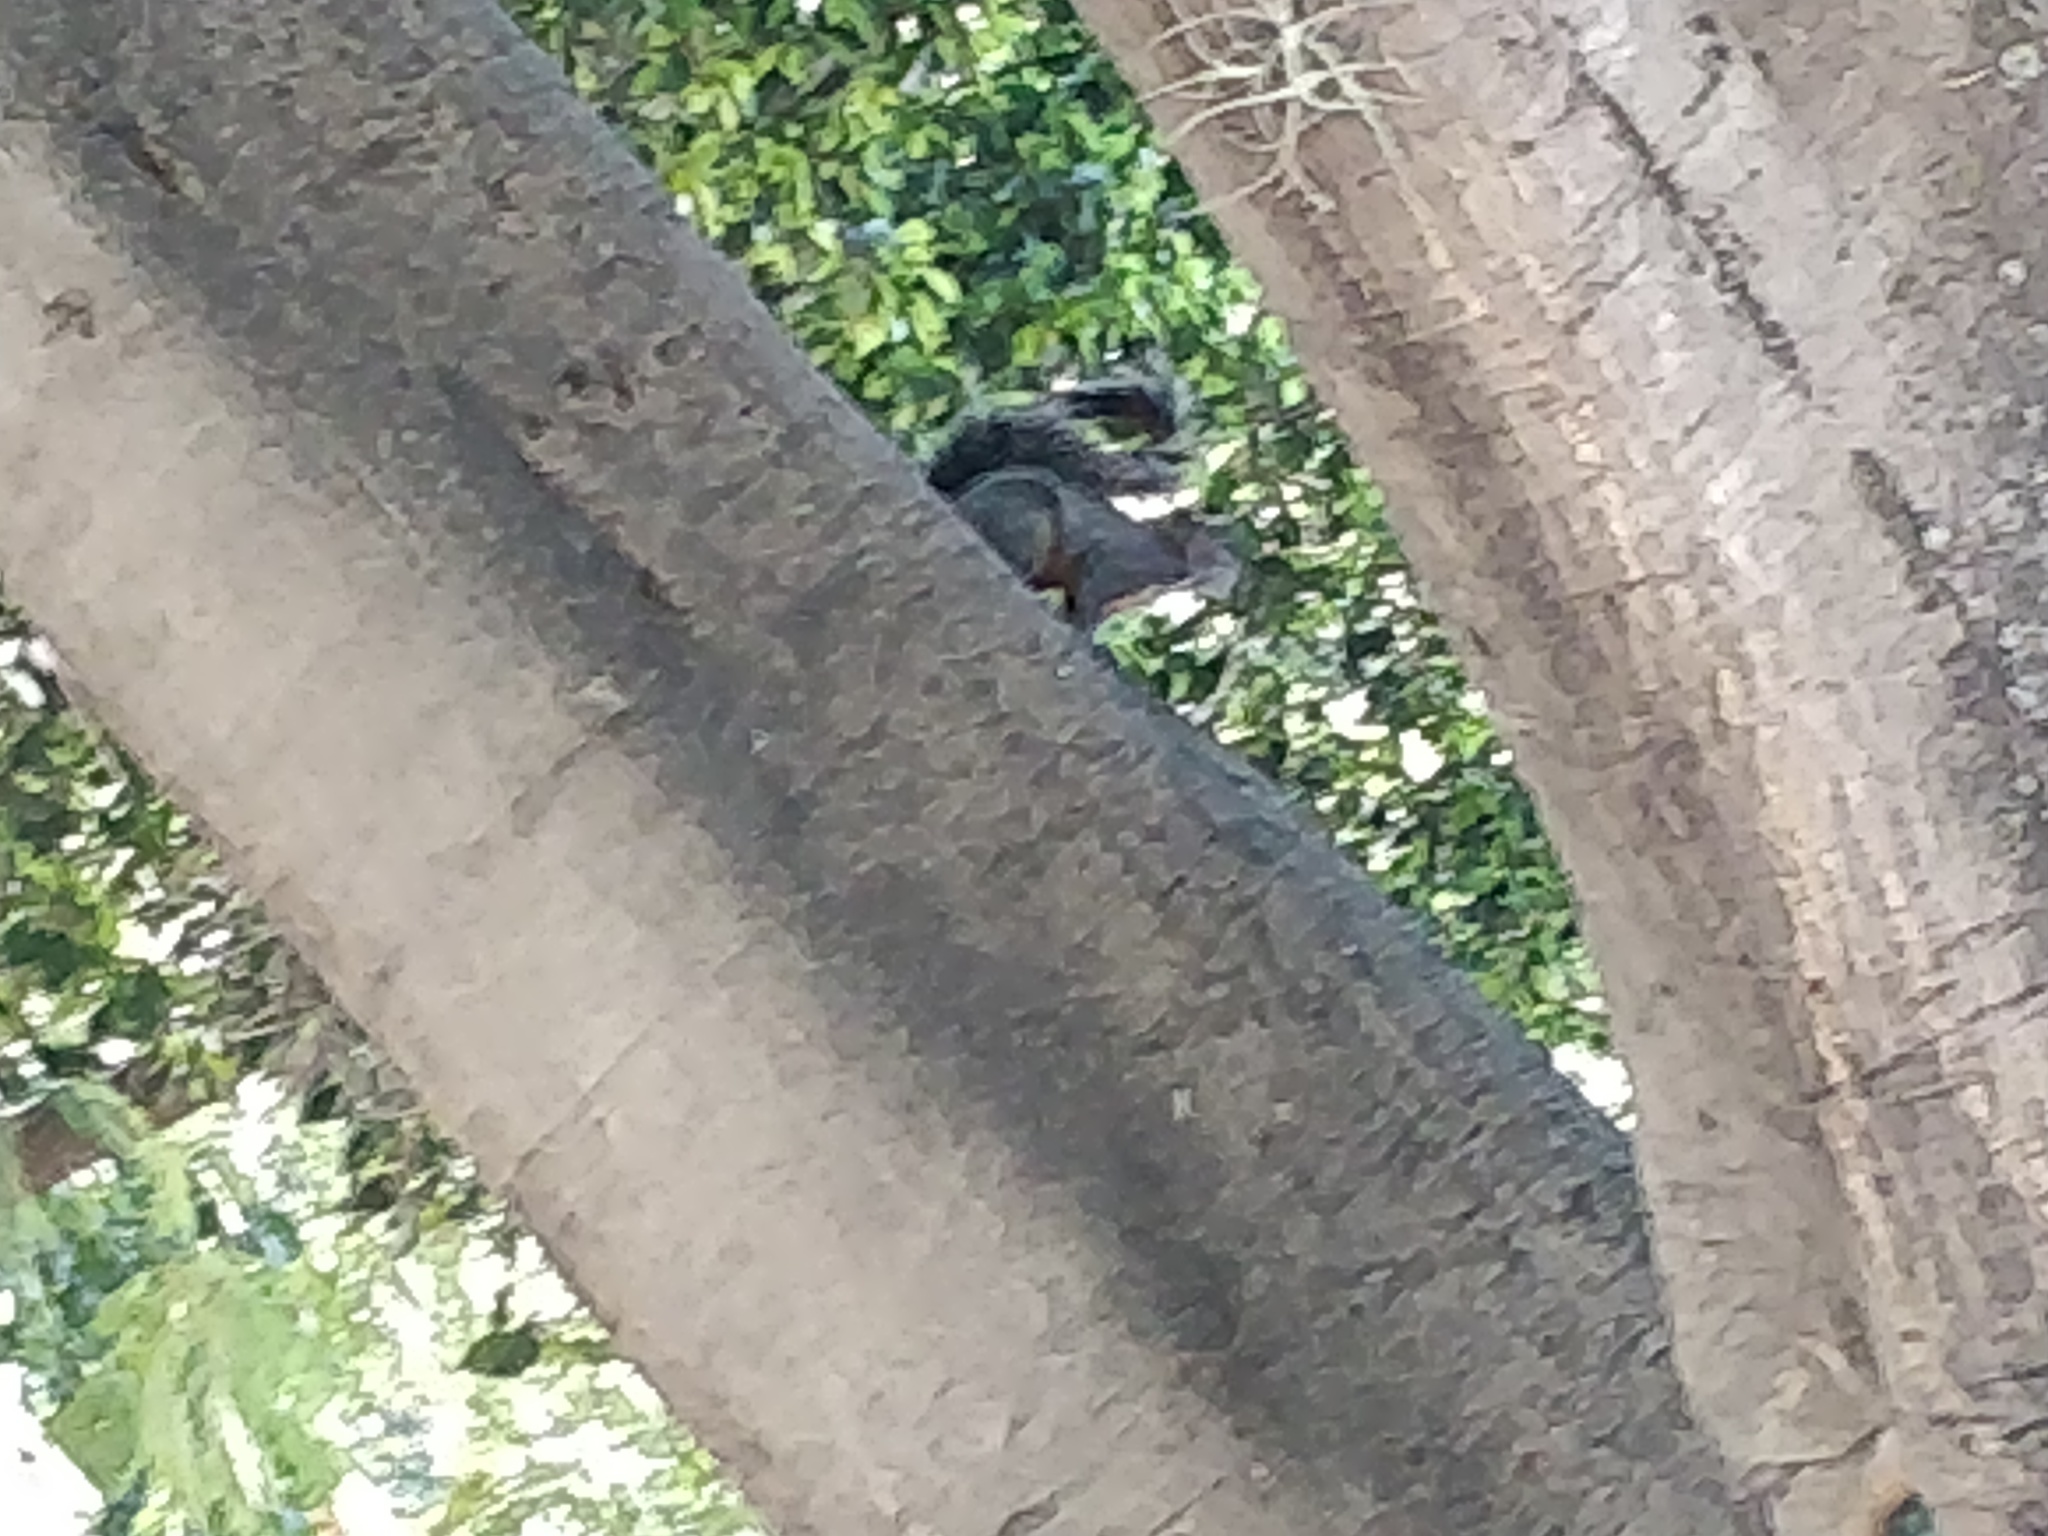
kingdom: Animalia
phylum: Chordata
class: Mammalia
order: Rodentia
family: Sciuridae
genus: Sciurus
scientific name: Sciurus aureogaster
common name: Red-bellied squirrel
